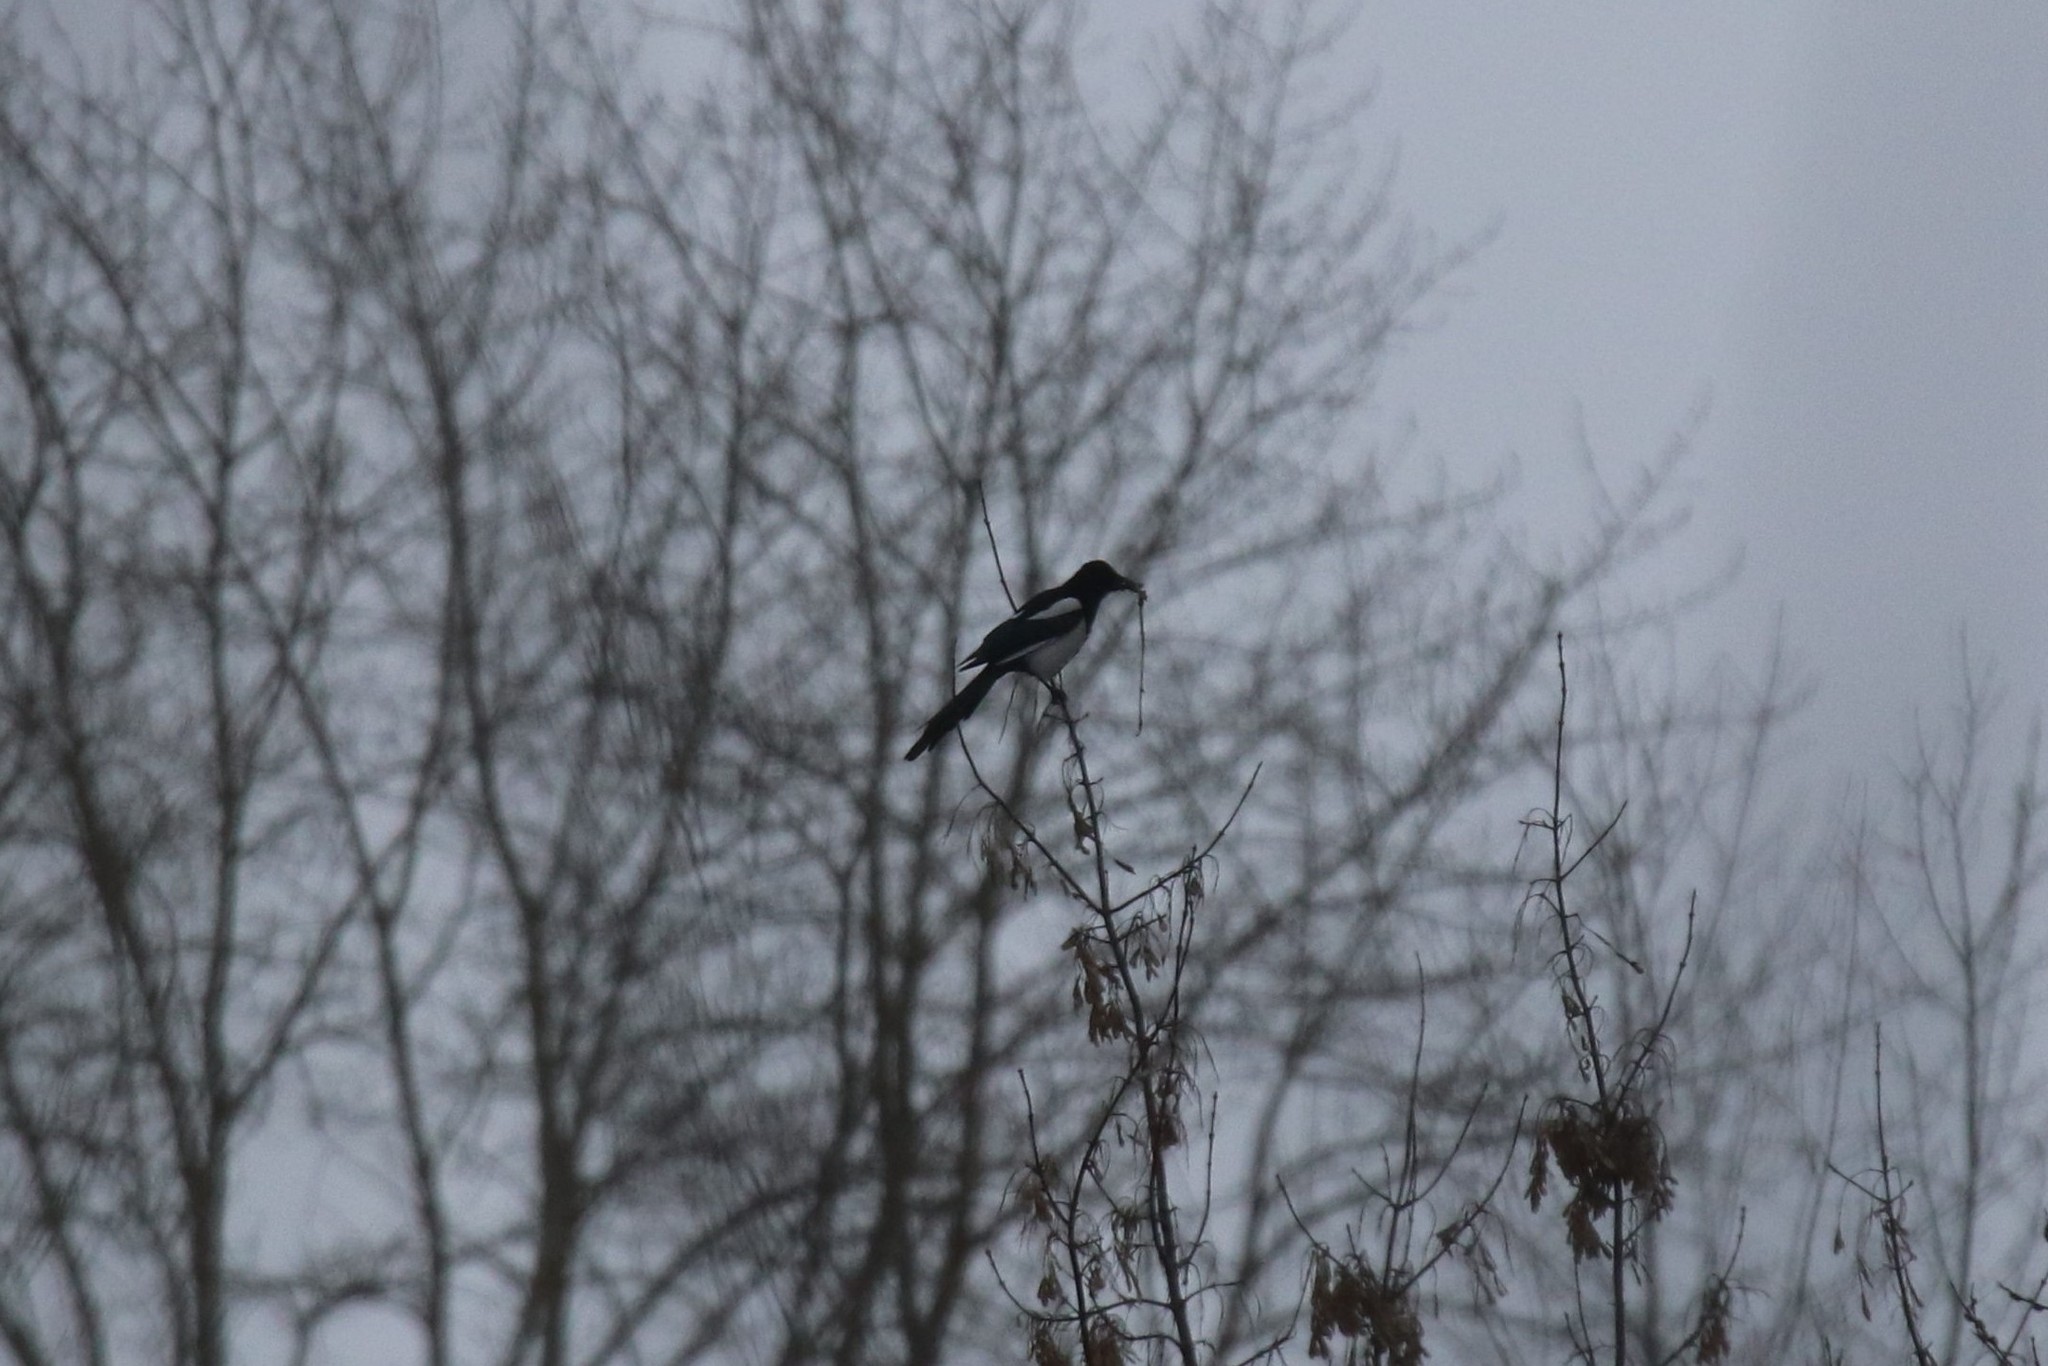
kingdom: Animalia
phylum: Chordata
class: Aves
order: Passeriformes
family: Corvidae
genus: Pica
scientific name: Pica pica
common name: Eurasian magpie
